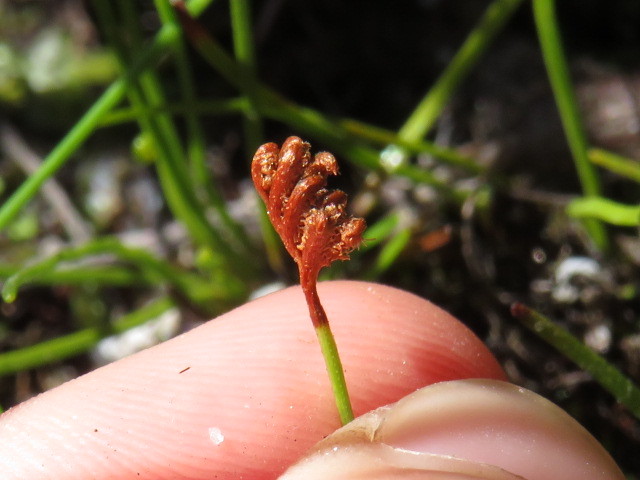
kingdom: Plantae
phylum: Tracheophyta
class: Polypodiopsida
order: Schizaeales
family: Schizaeaceae
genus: Microschizaea
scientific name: Microschizaea tenella
